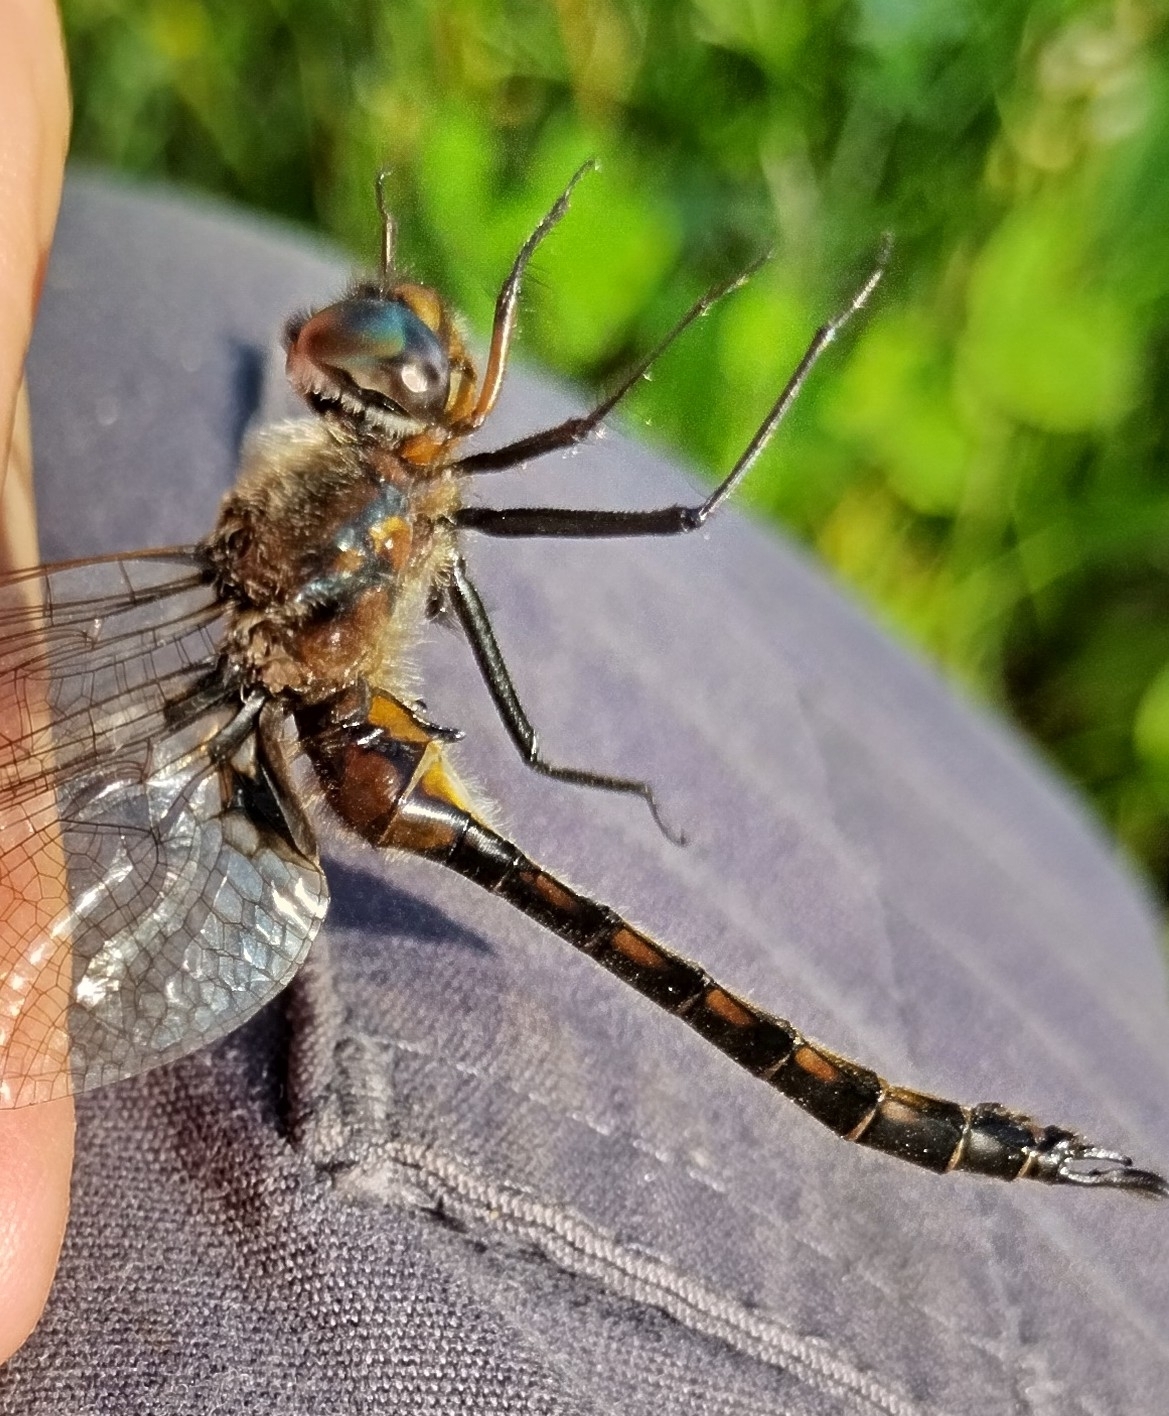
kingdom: Animalia
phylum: Arthropoda
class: Insecta
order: Odonata
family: Corduliidae
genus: Epitheca
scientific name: Epitheca spinigera
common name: Spiny baskettail
